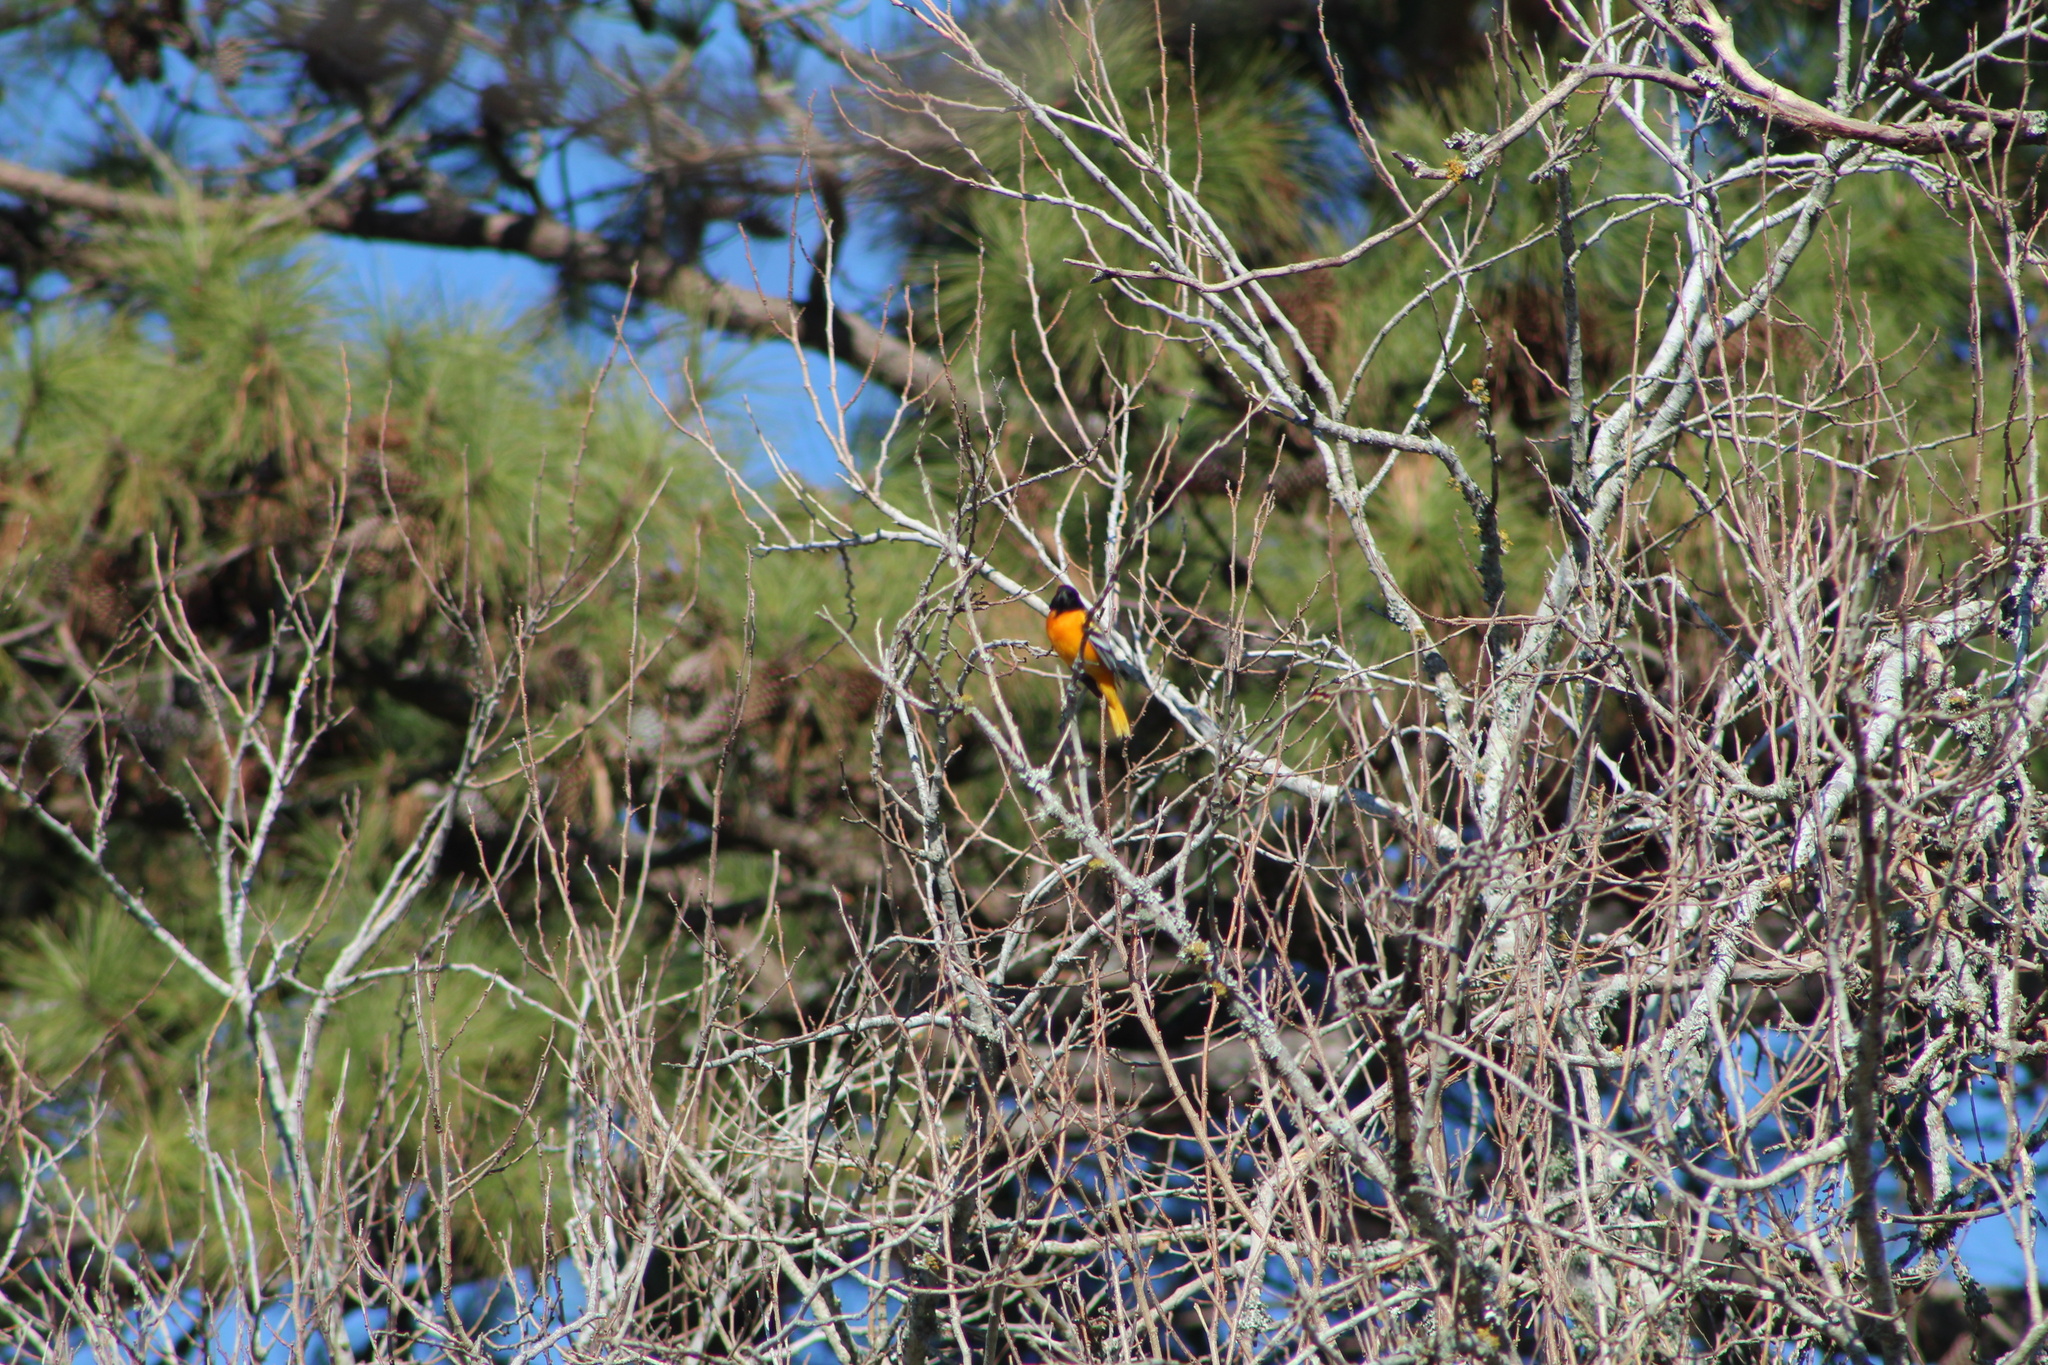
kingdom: Animalia
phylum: Chordata
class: Aves
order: Passeriformes
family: Icteridae
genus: Icterus
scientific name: Icterus galbula
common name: Baltimore oriole
